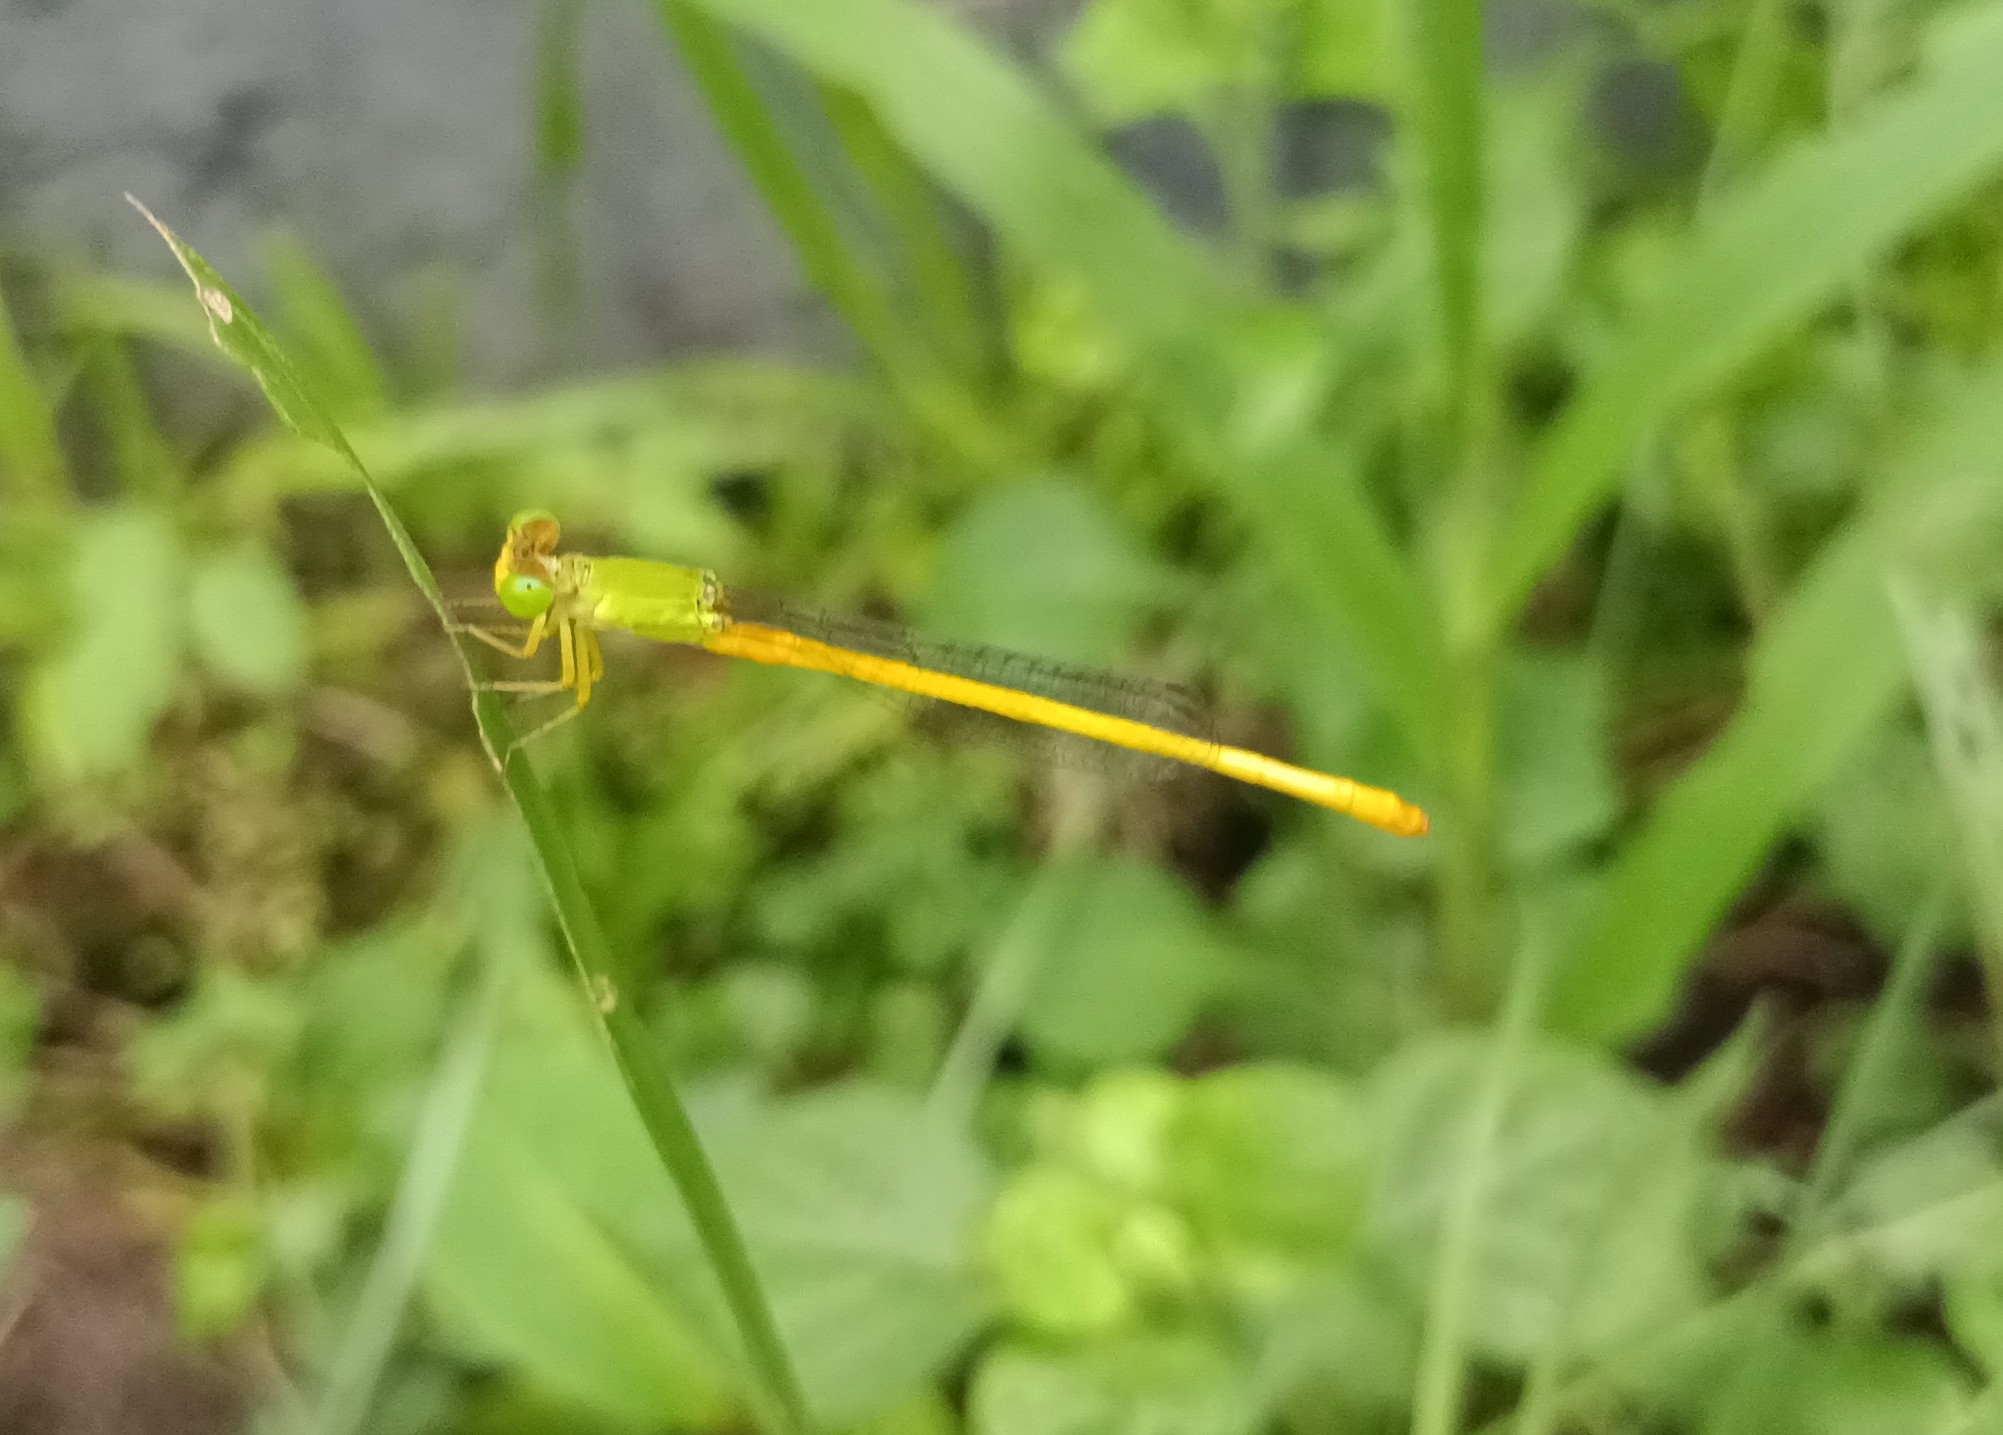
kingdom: Animalia
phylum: Arthropoda
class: Insecta
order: Odonata
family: Coenagrionidae
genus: Ceriagrion
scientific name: Ceriagrion coromandelianum
